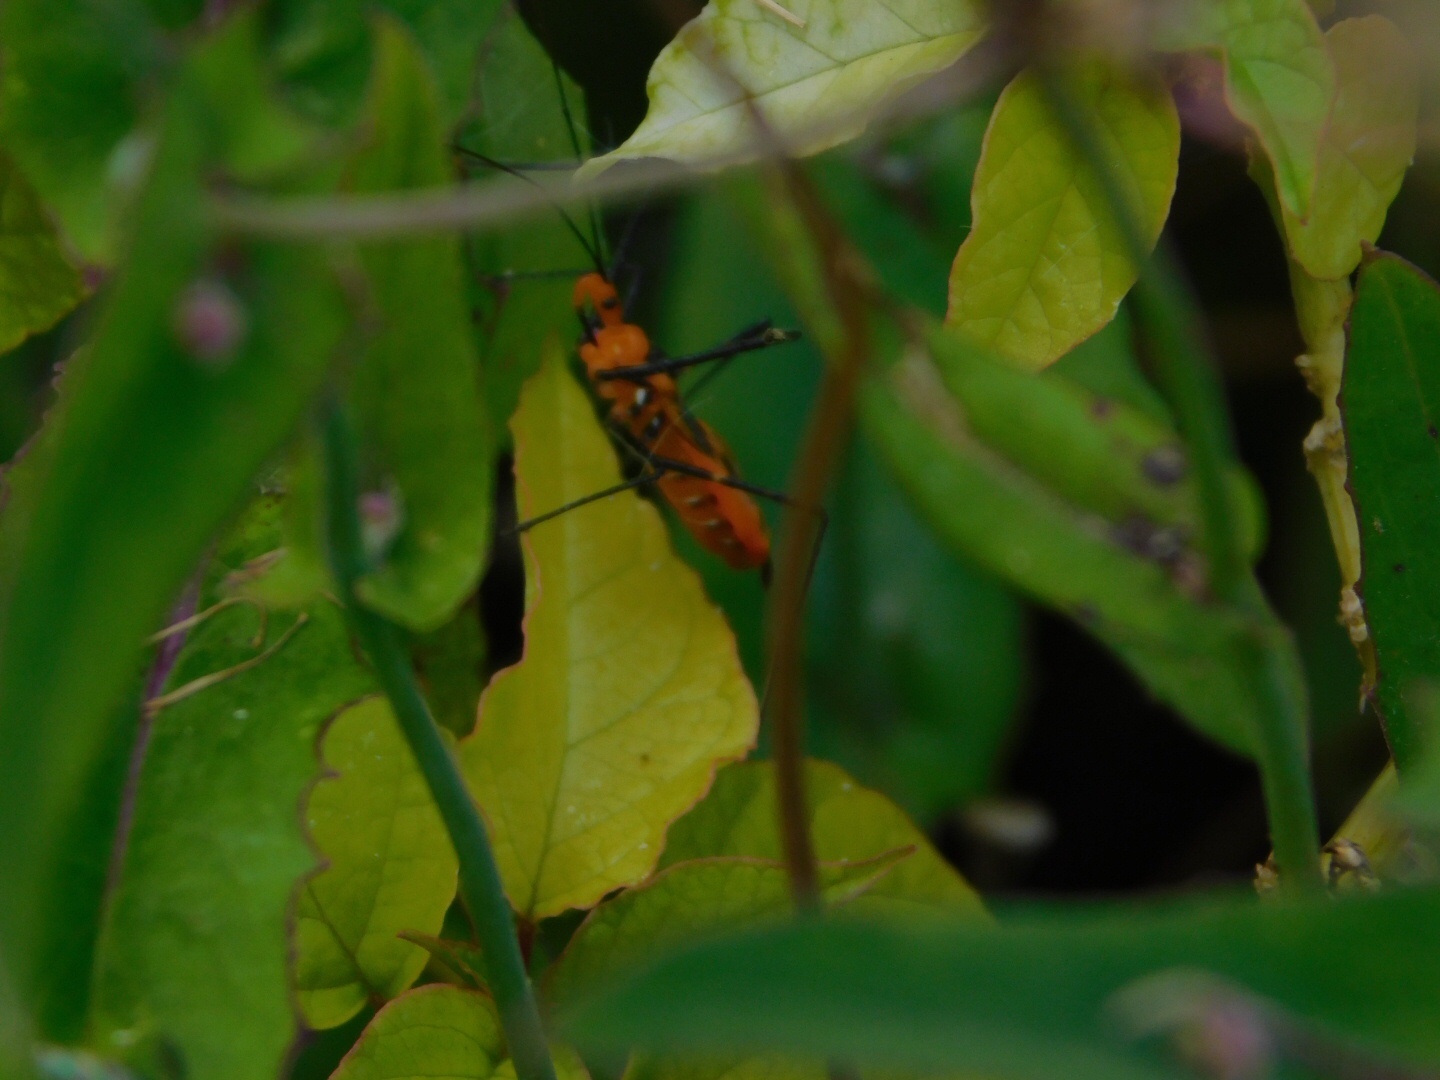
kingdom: Animalia
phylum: Arthropoda
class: Insecta
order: Hemiptera
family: Reduviidae
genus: Zelus
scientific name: Zelus longipes
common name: Milkweed assassin bug
